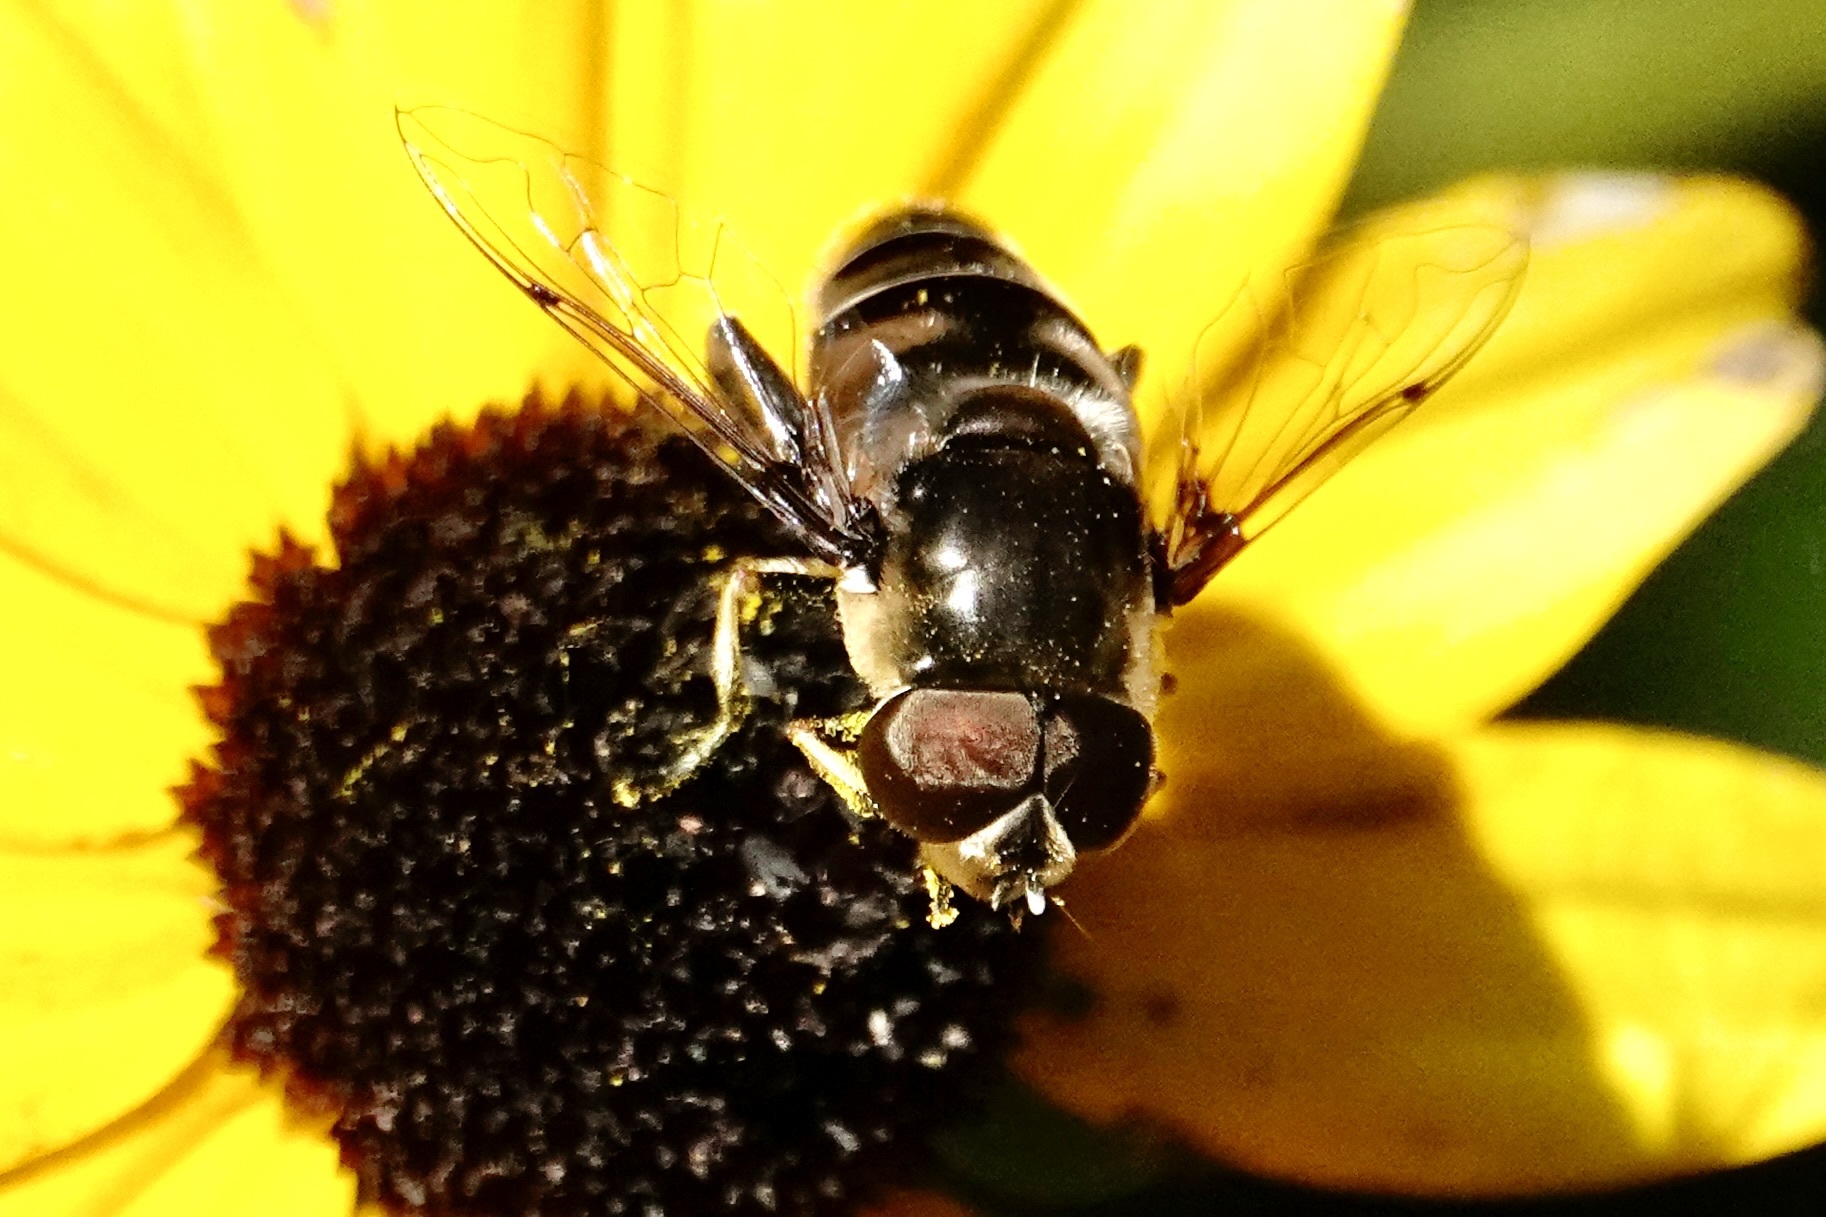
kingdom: Animalia
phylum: Arthropoda
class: Insecta
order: Diptera
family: Syrphidae
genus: Eristalis
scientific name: Eristalis dimidiata
